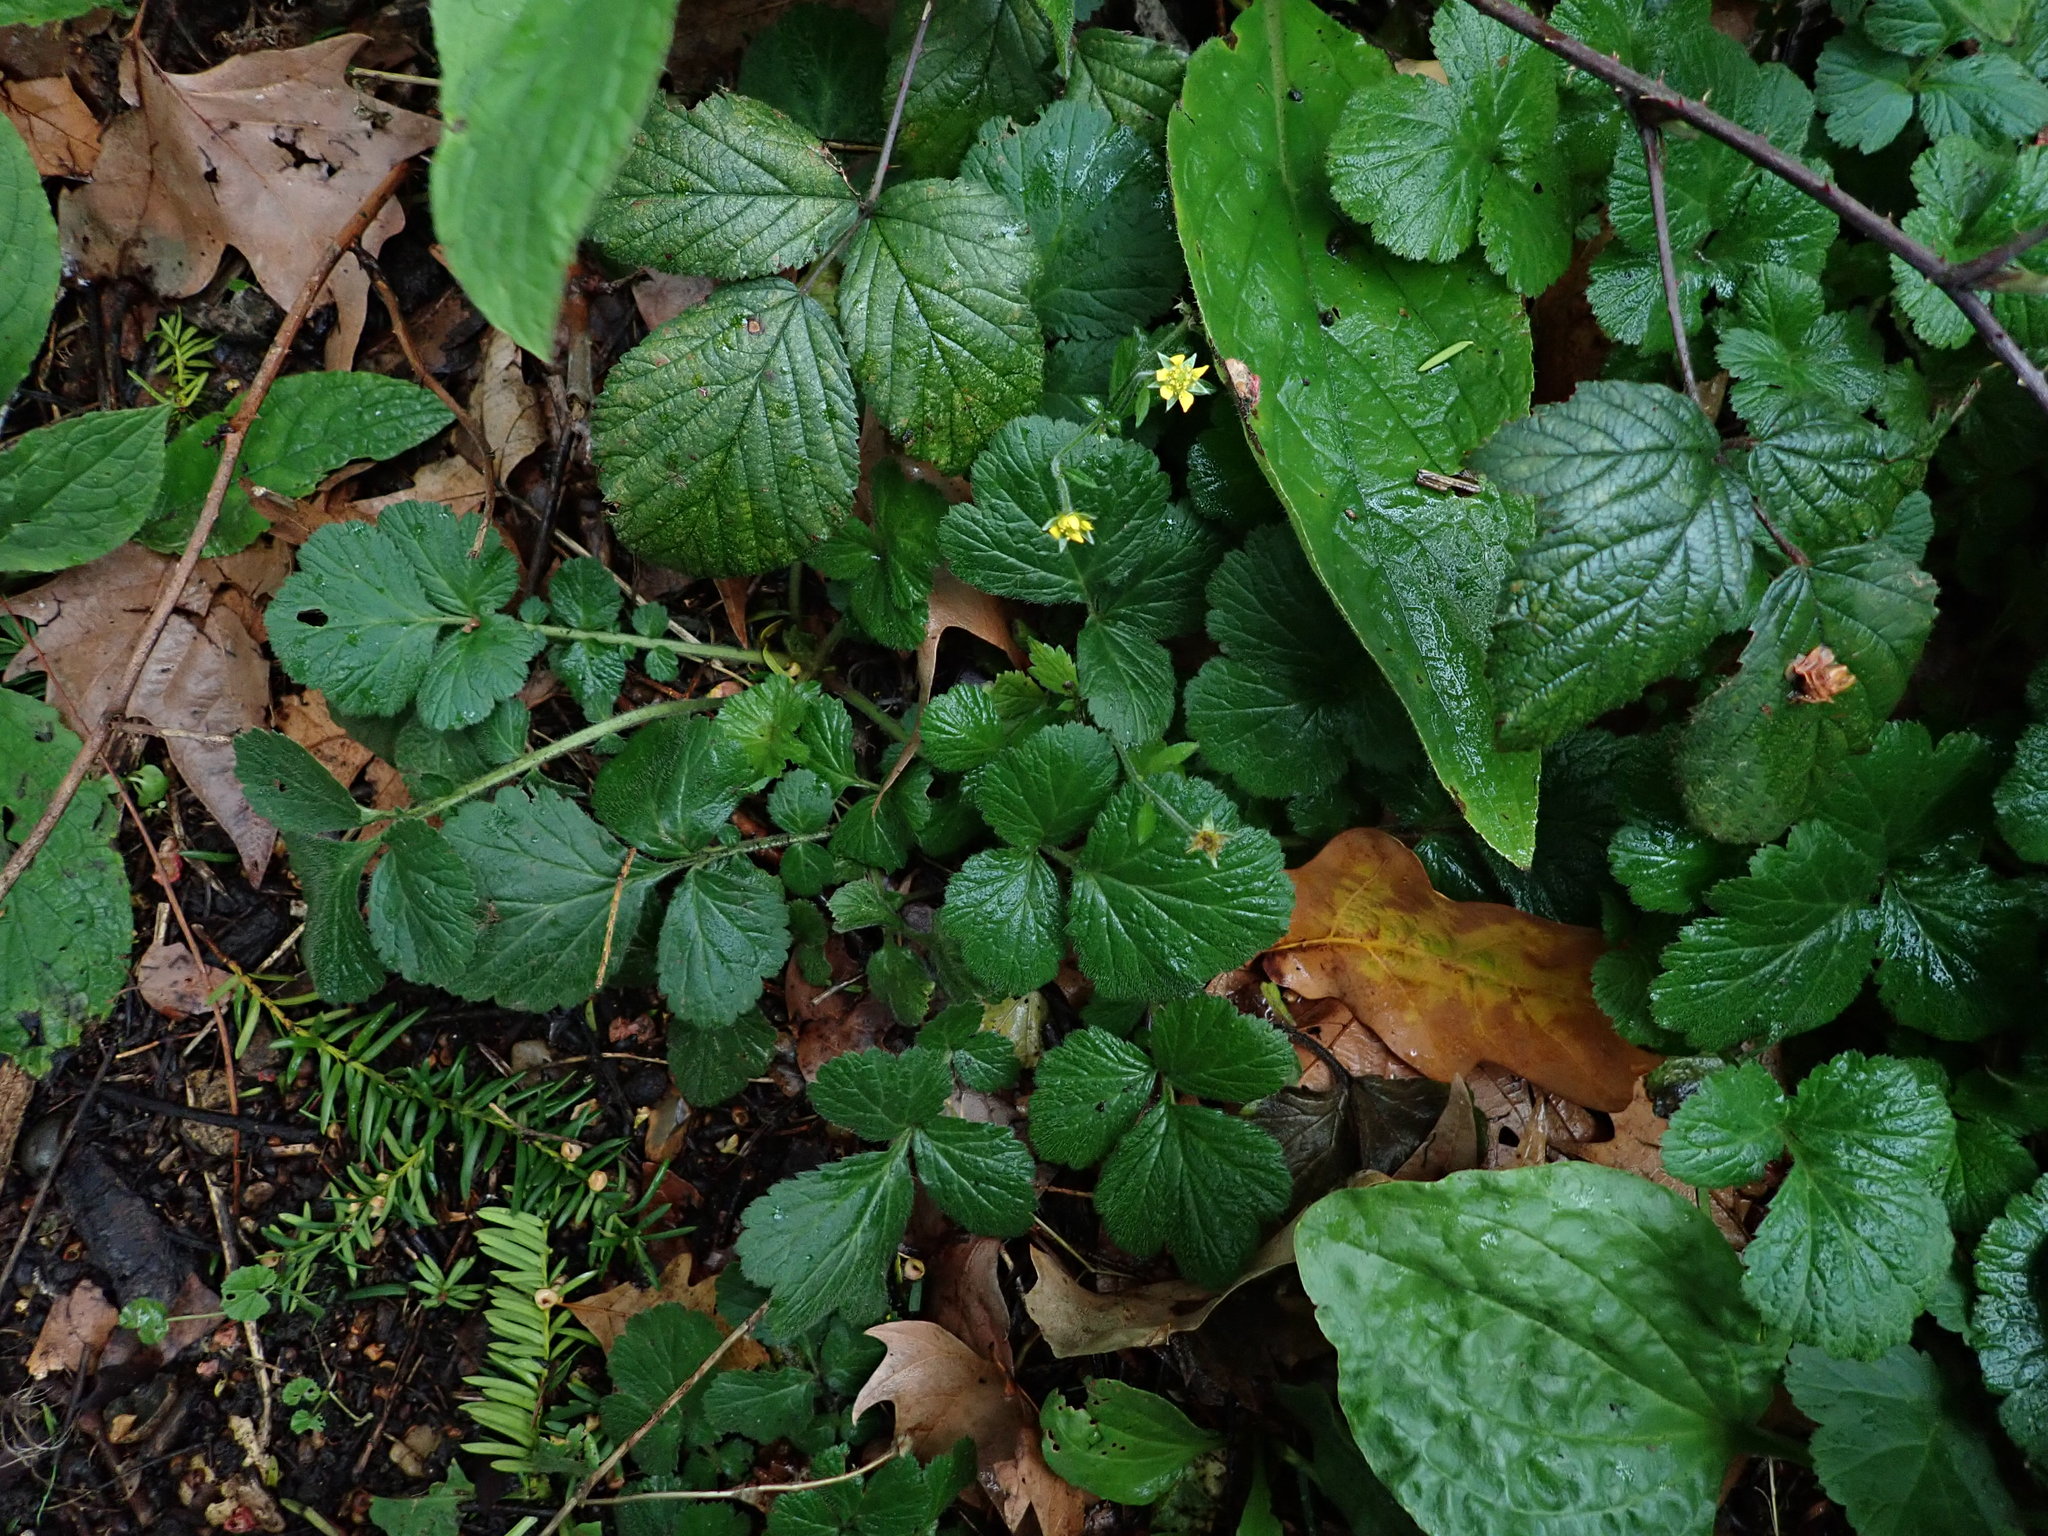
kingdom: Plantae
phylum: Tracheophyta
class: Magnoliopsida
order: Rosales
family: Rosaceae
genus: Geum
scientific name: Geum urbanum
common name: Wood avens
